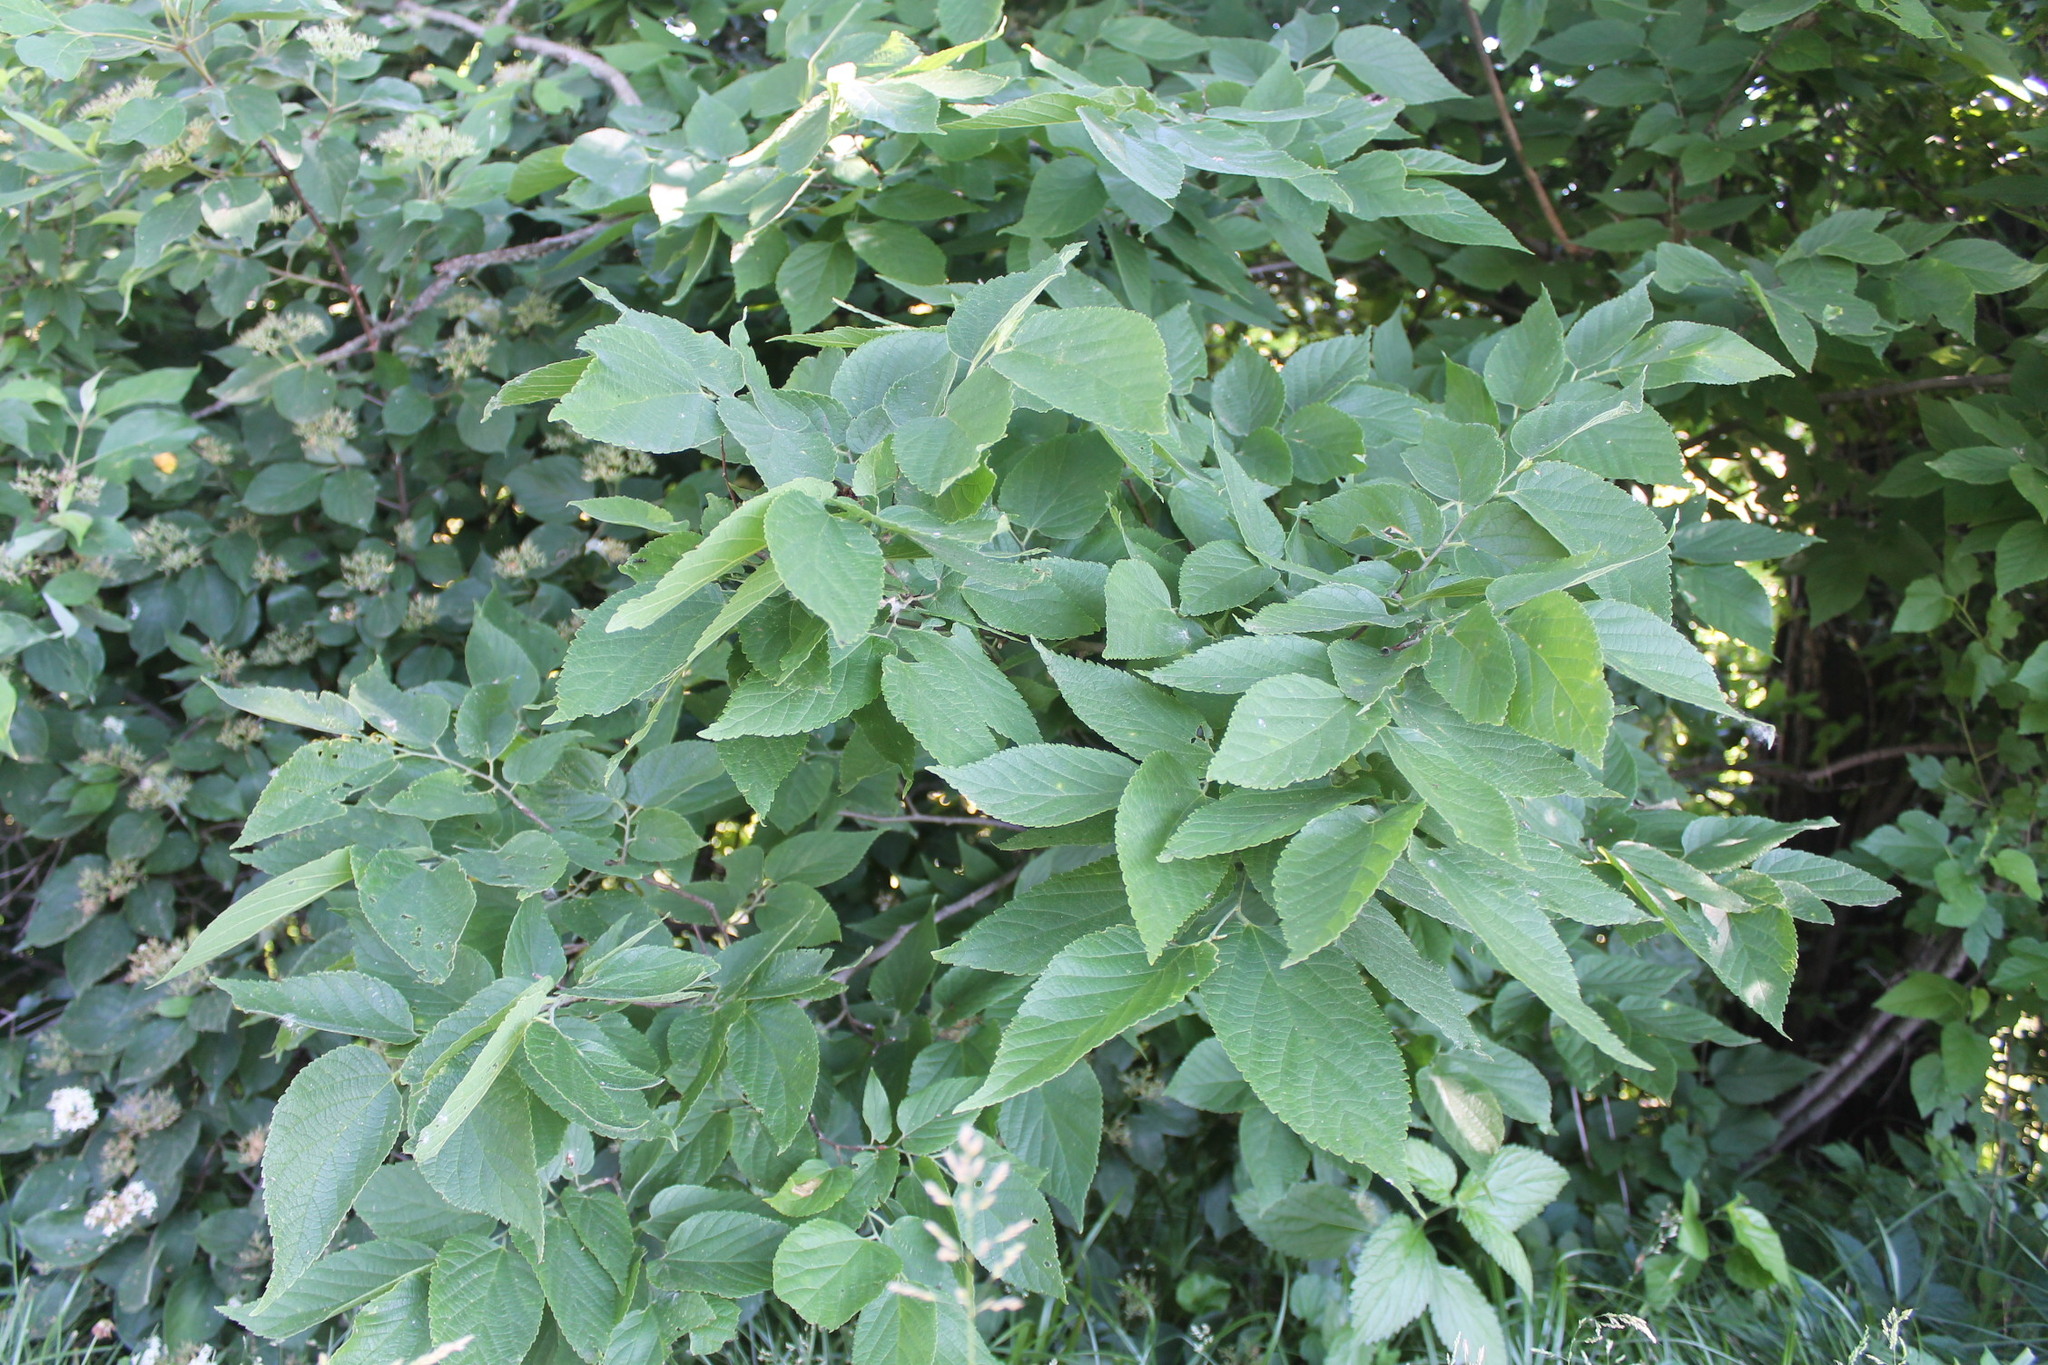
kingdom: Animalia
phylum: Arthropoda
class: Insecta
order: Hemiptera
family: Aphalaridae
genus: Pachypsylla
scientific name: Pachypsylla celtidismamma
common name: Hackberry nipplegall psyllid
